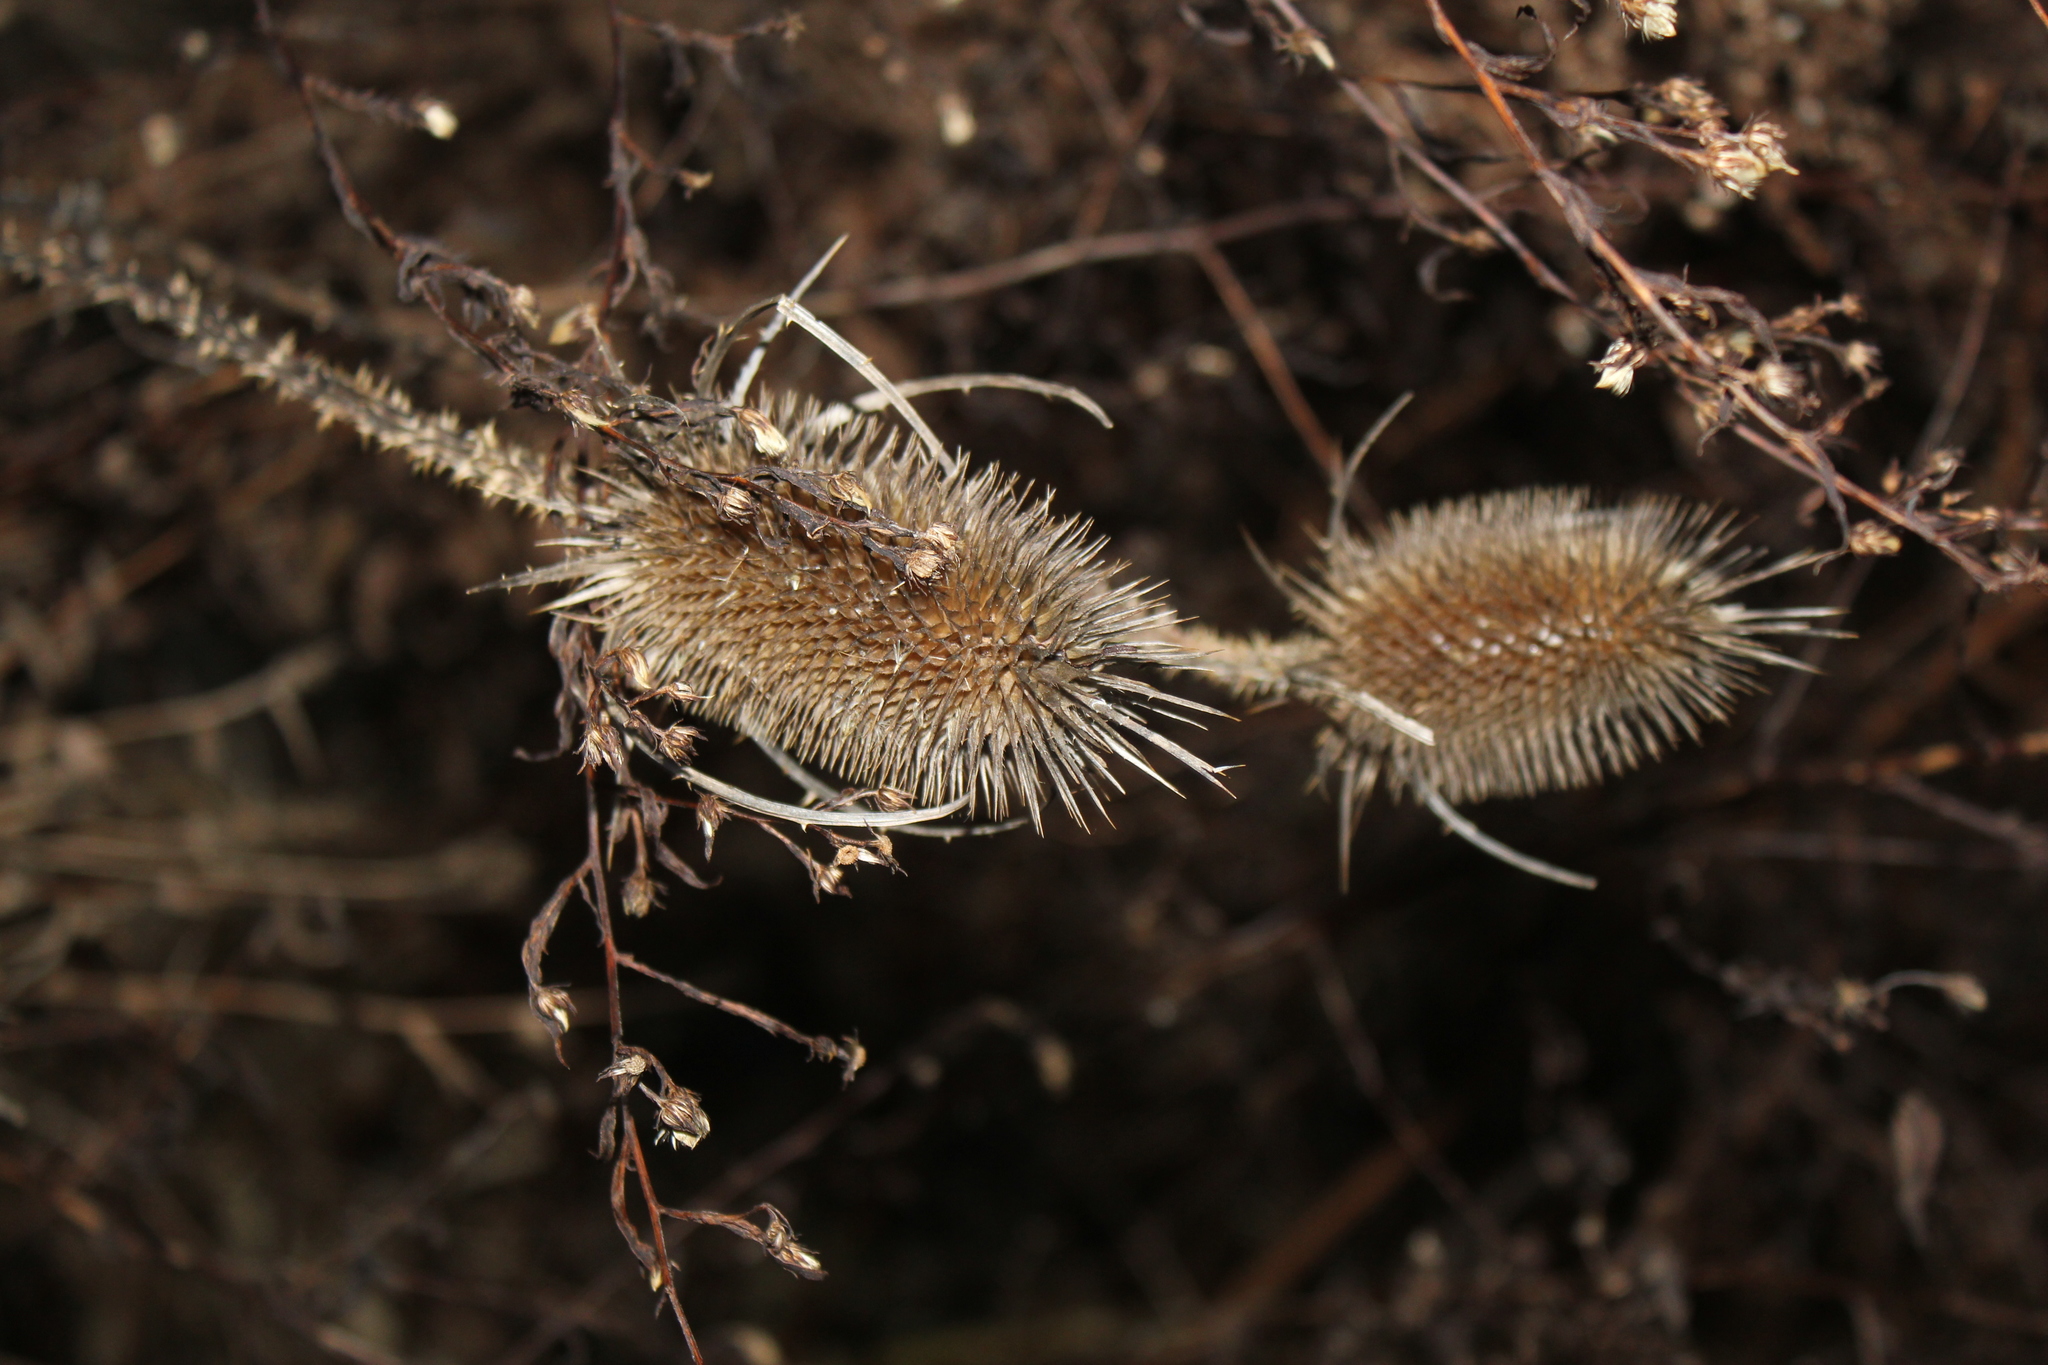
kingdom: Plantae
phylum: Tracheophyta
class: Magnoliopsida
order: Dipsacales
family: Caprifoliaceae
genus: Dipsacus
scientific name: Dipsacus fullonum
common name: Teasel
